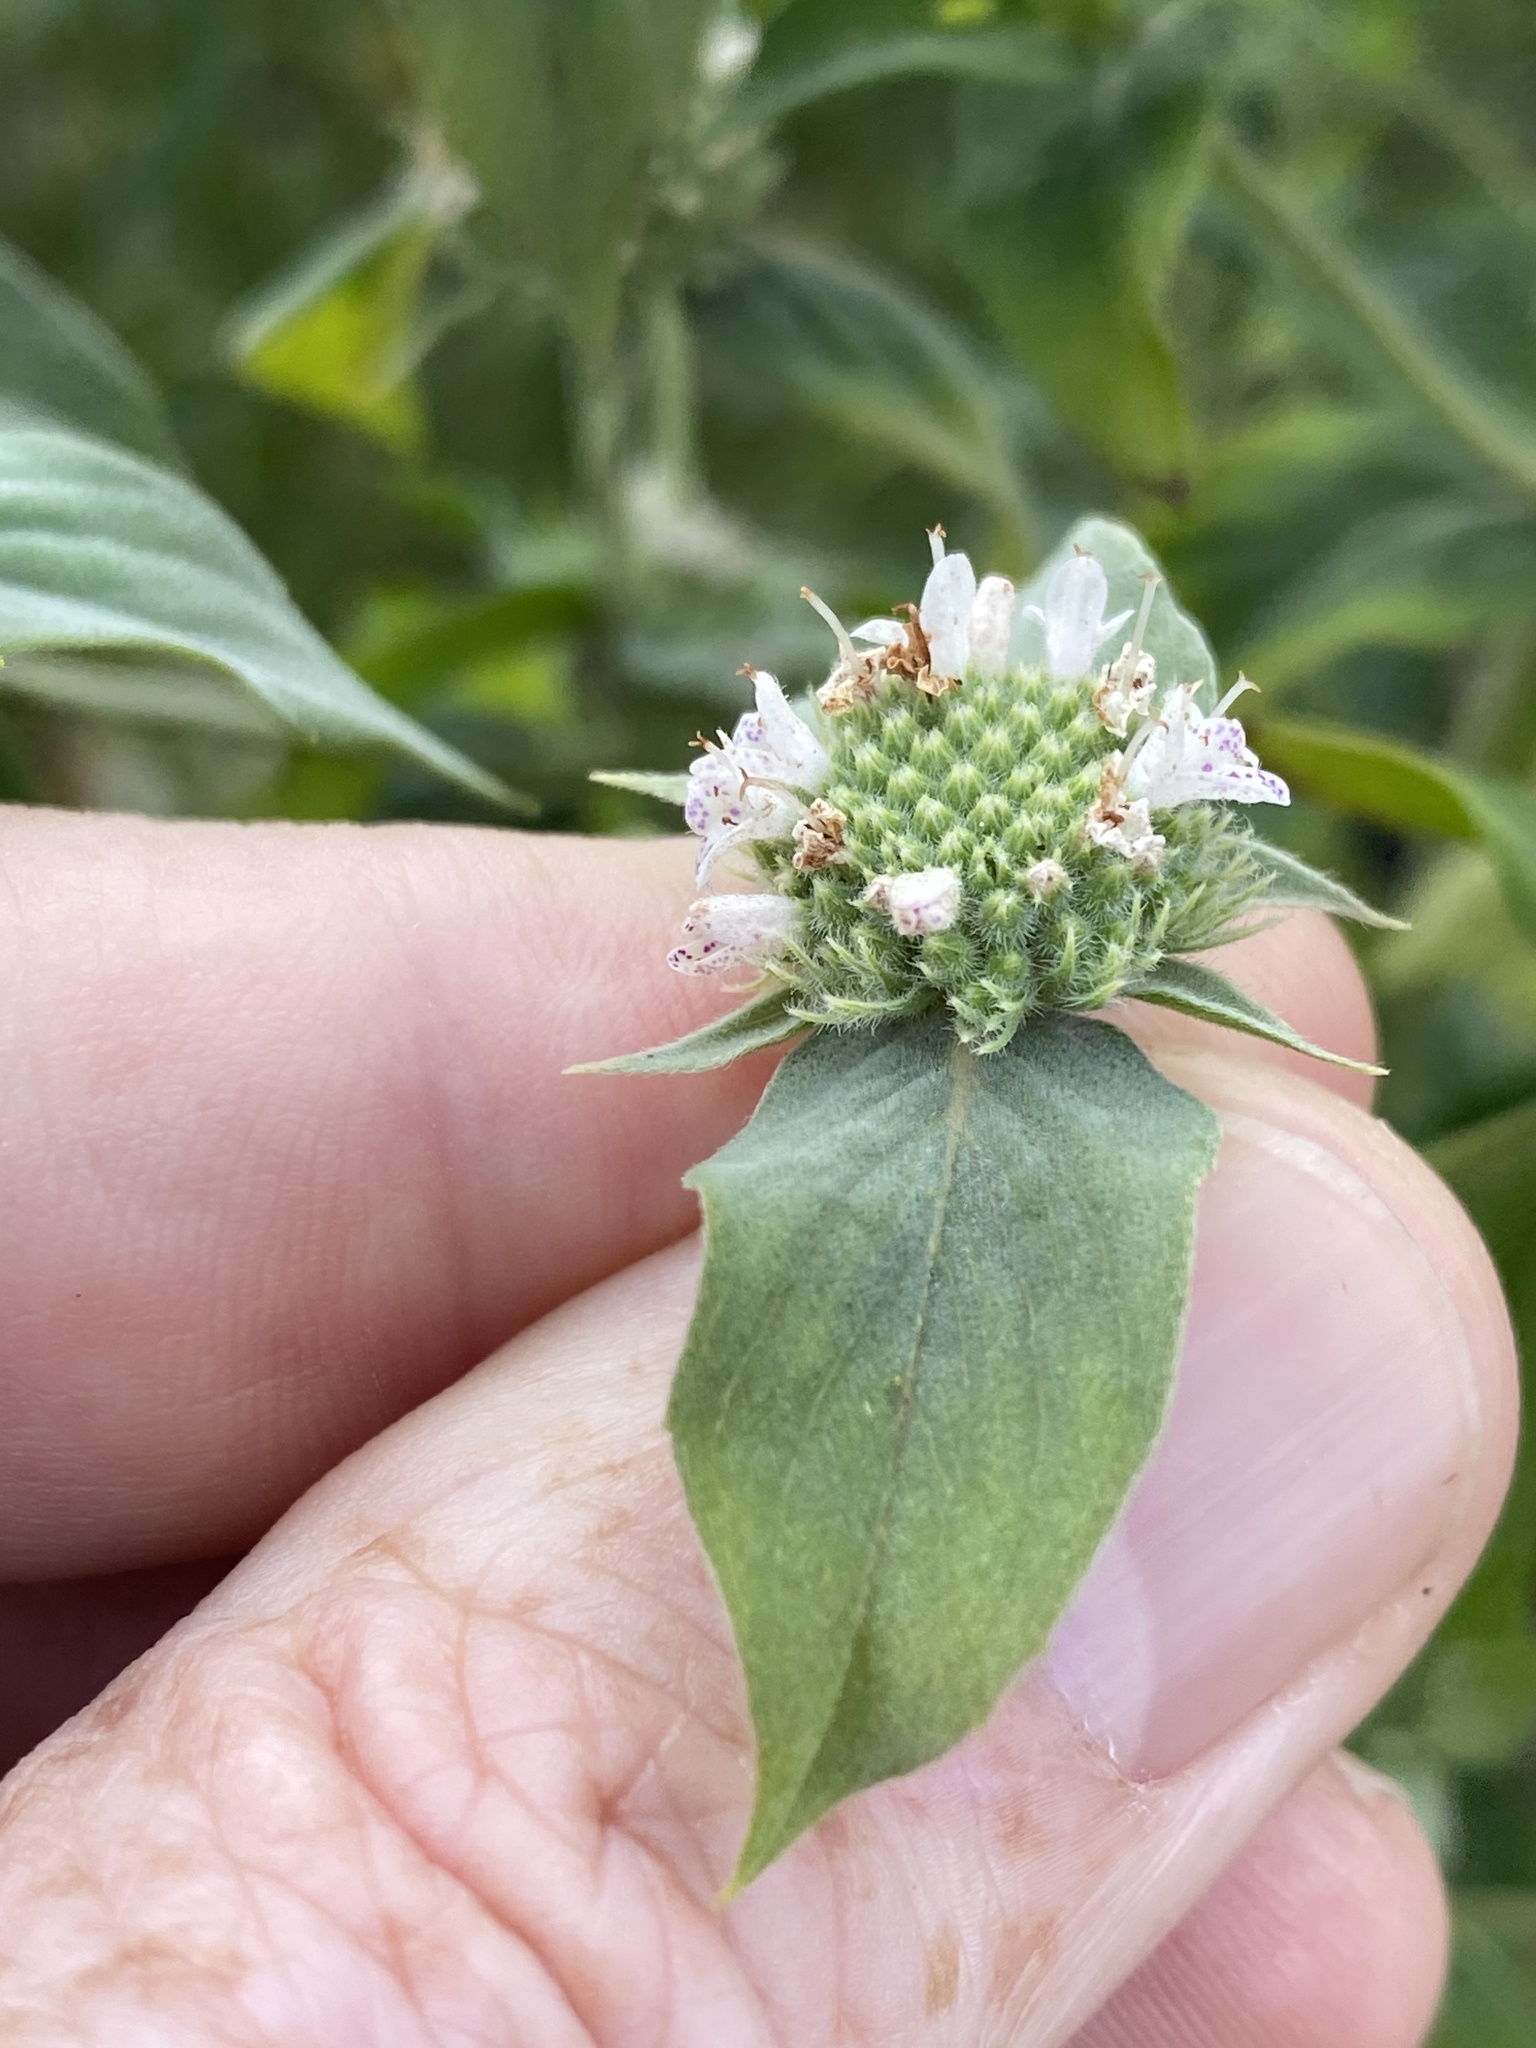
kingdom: Plantae
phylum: Tracheophyta
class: Magnoliopsida
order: Lamiales
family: Lamiaceae
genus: Pycnanthemum
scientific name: Pycnanthemum muticum
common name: Blunt mountain-mint
